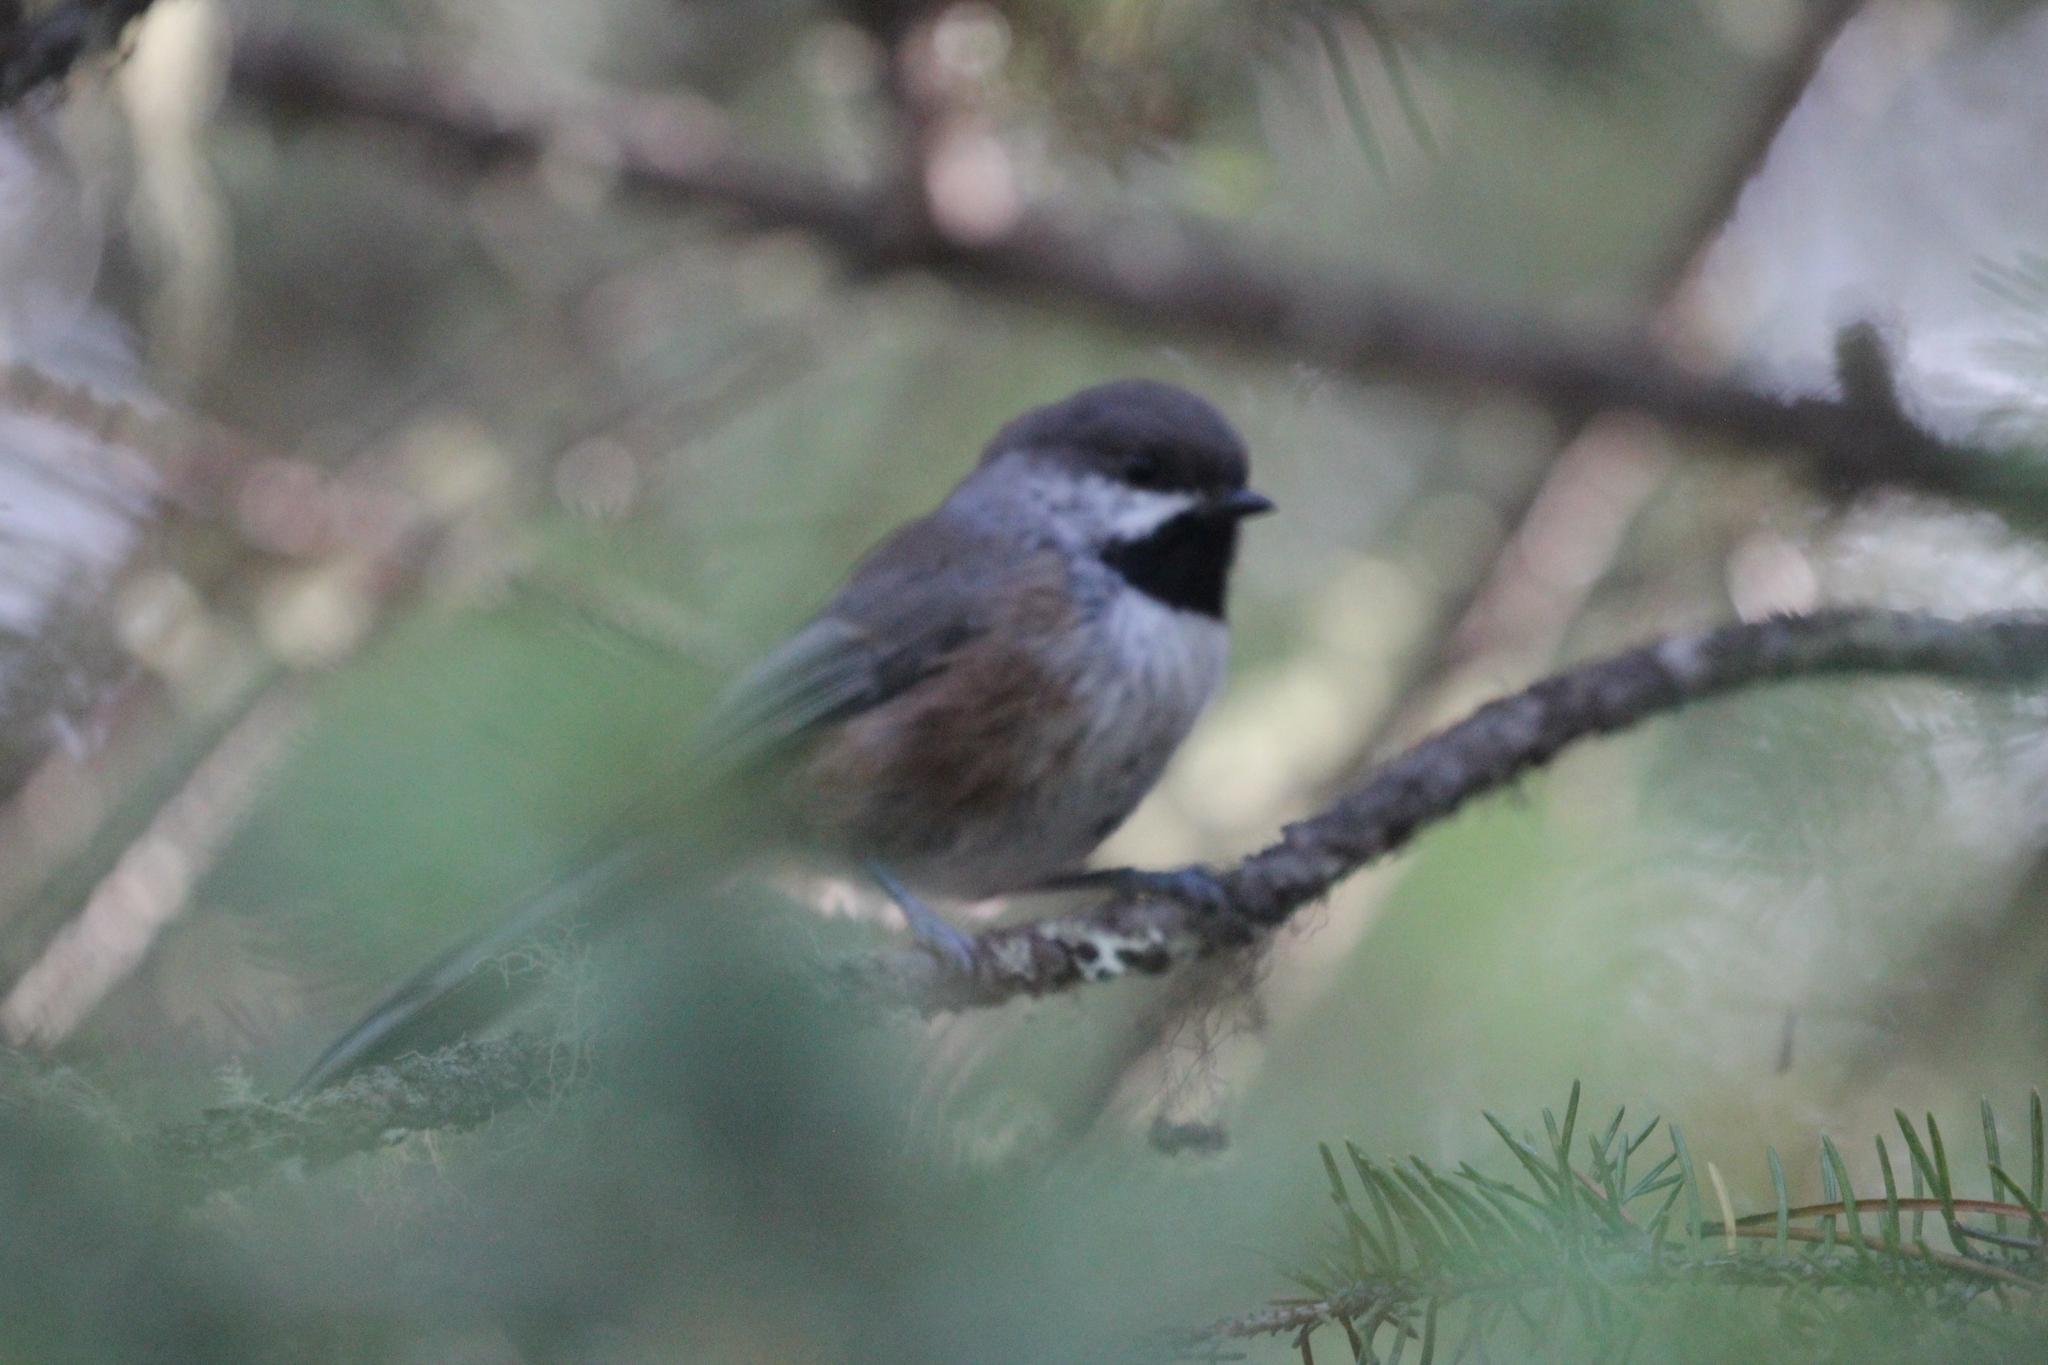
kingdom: Animalia
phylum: Chordata
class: Aves
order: Passeriformes
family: Paridae
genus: Poecile
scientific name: Poecile hudsonicus
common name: Boreal chickadee
